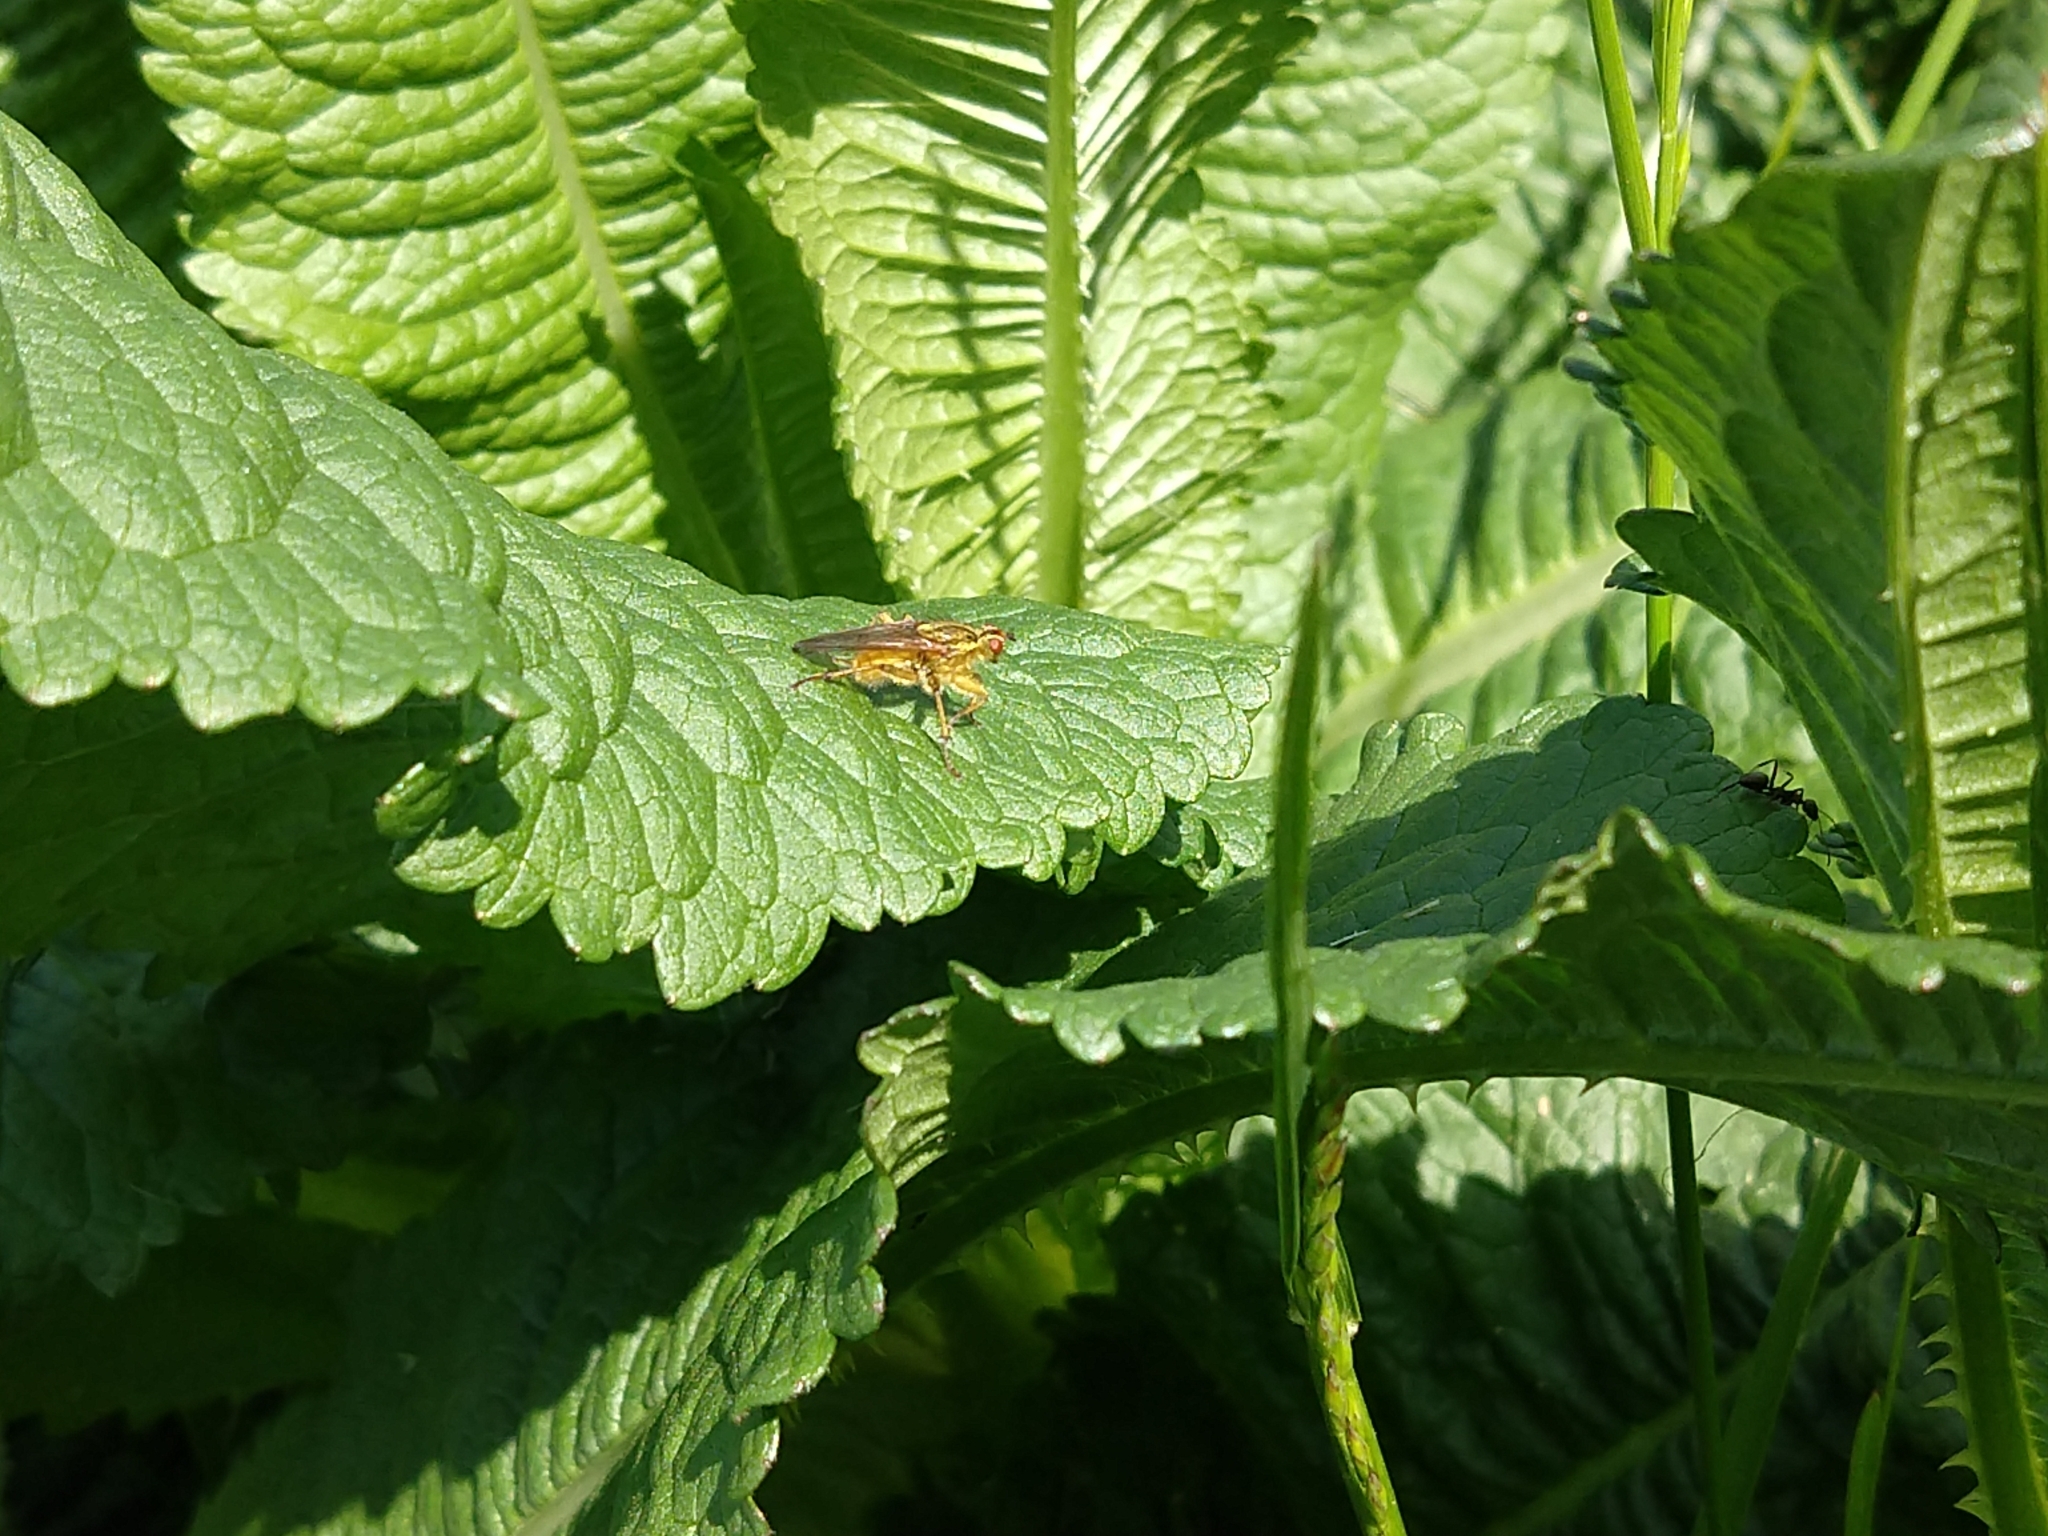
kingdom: Animalia
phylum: Arthropoda
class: Insecta
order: Diptera
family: Scathophagidae
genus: Scathophaga
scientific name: Scathophaga stercoraria
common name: Yellow dung fly
